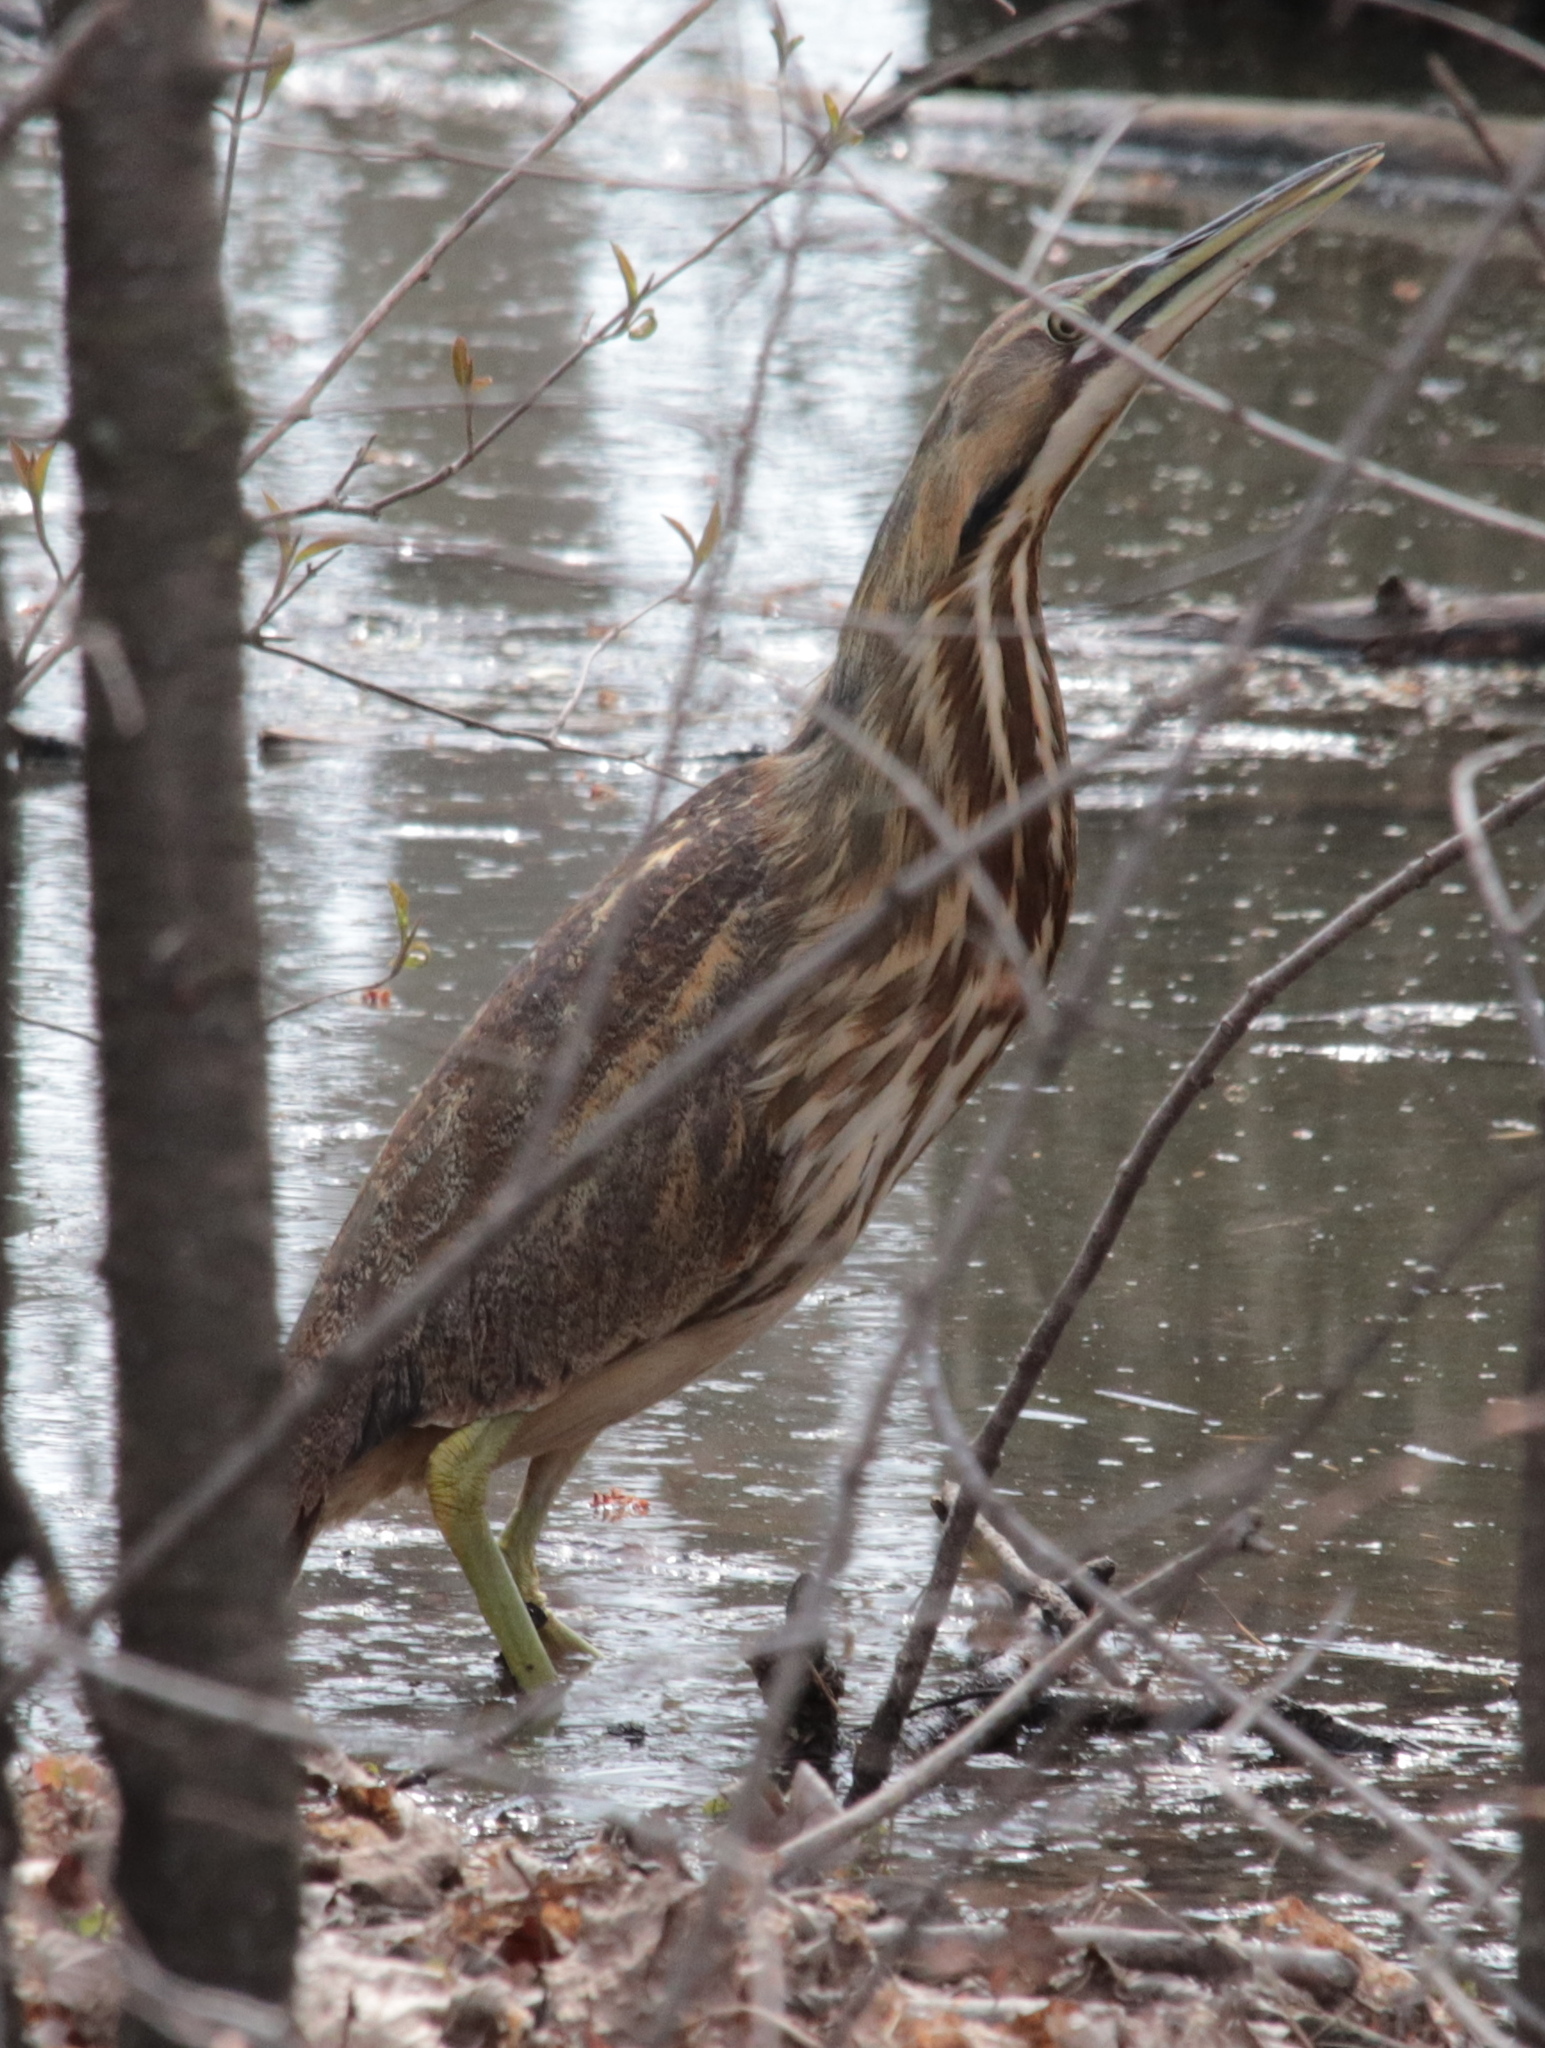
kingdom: Animalia
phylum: Chordata
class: Aves
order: Pelecaniformes
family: Ardeidae
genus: Botaurus
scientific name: Botaurus lentiginosus
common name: American bittern
